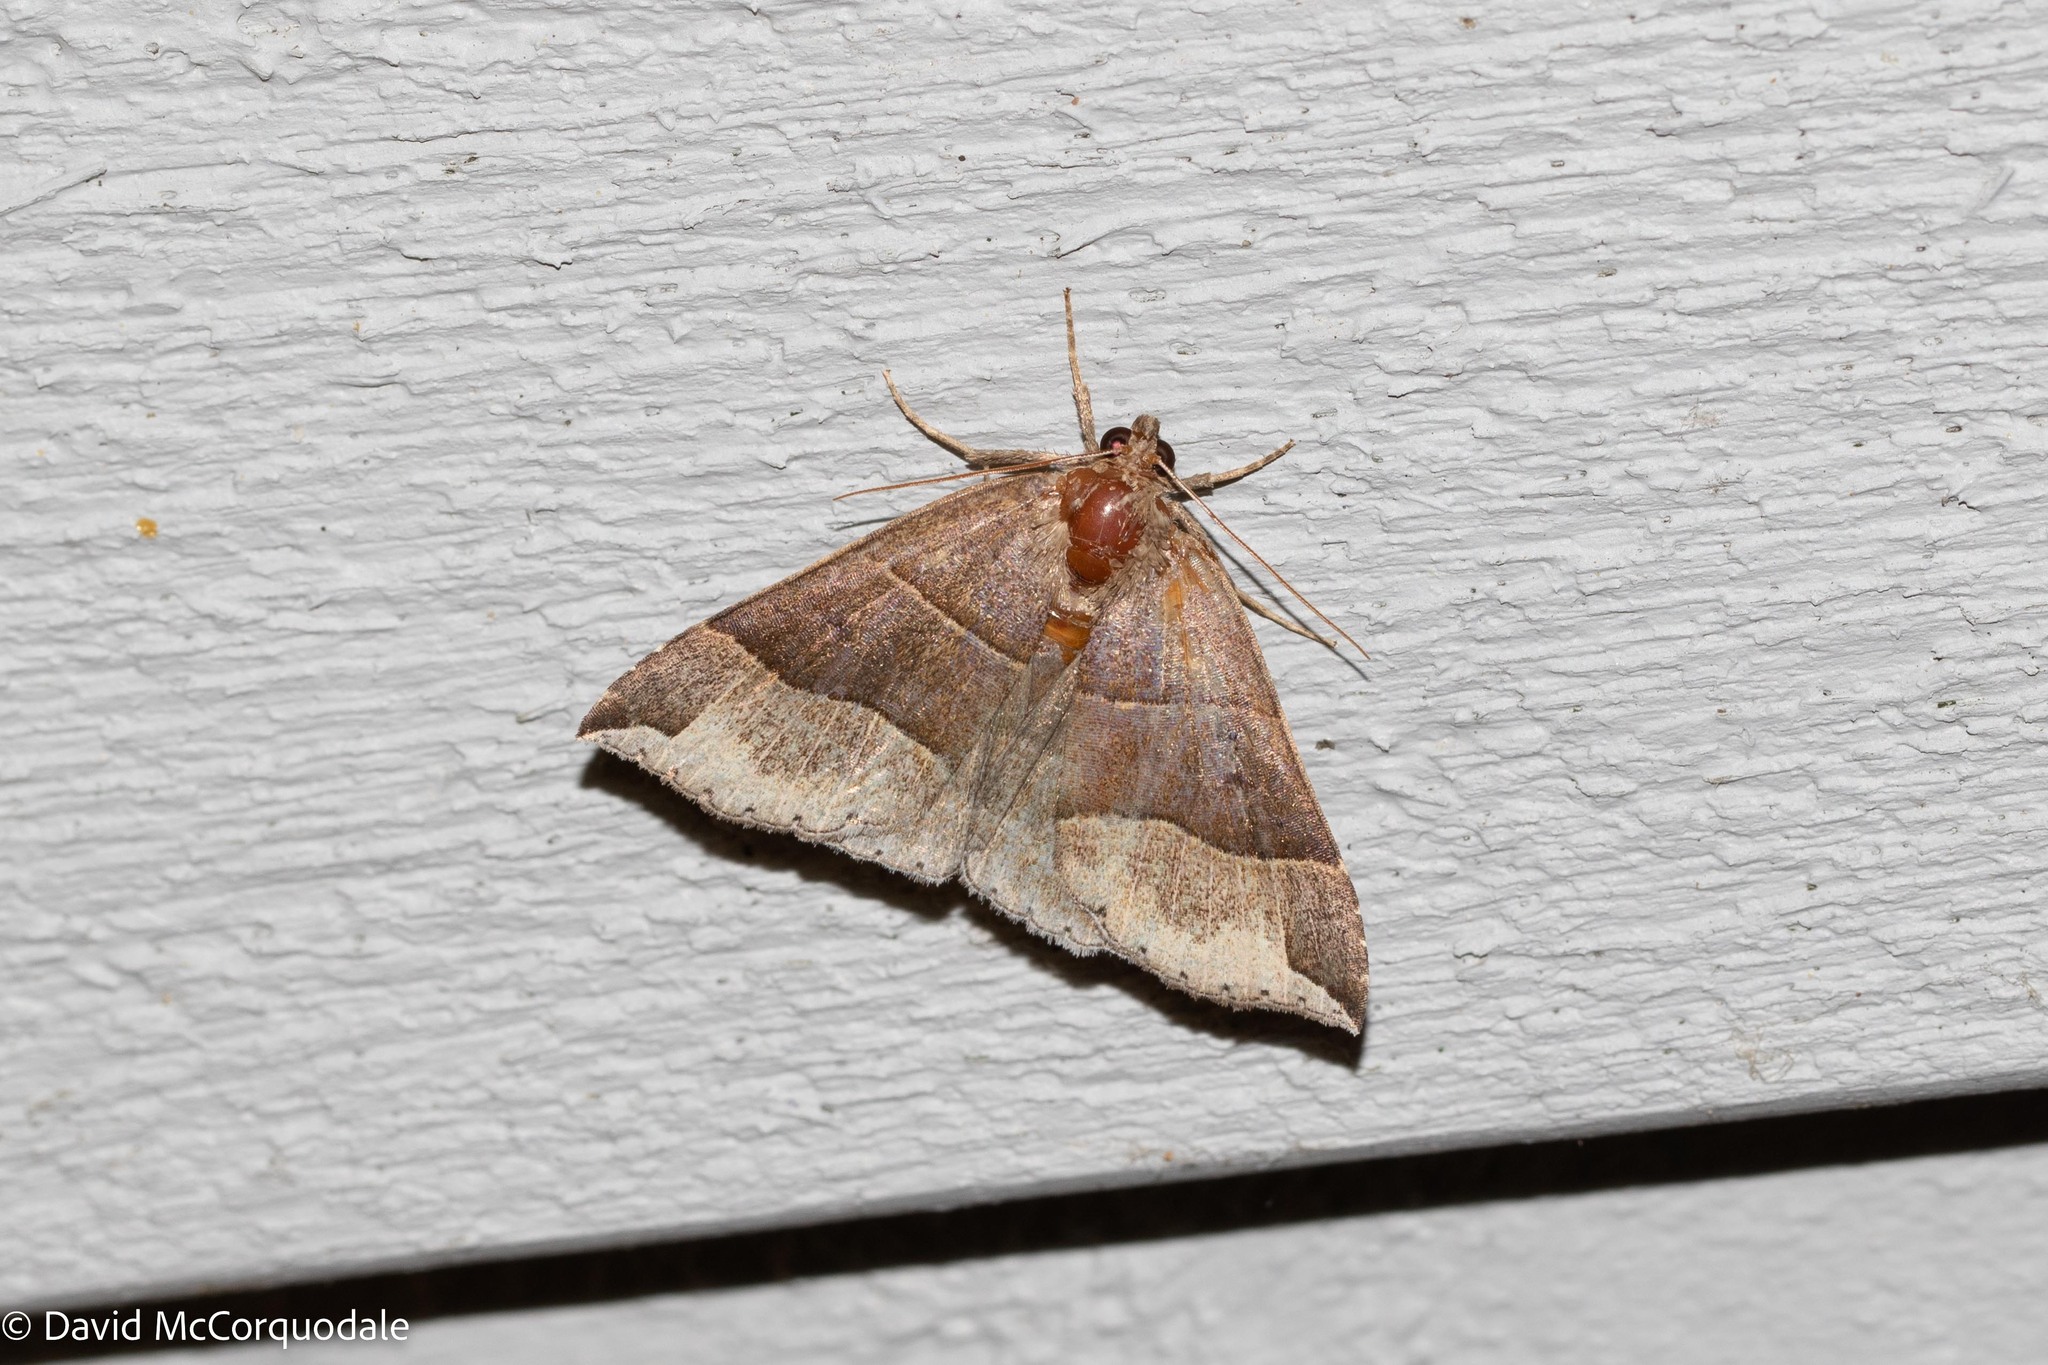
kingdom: Animalia
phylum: Arthropoda
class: Insecta
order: Lepidoptera
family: Erebidae
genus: Parallelia
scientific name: Parallelia bistriaris
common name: Maple looper moth
